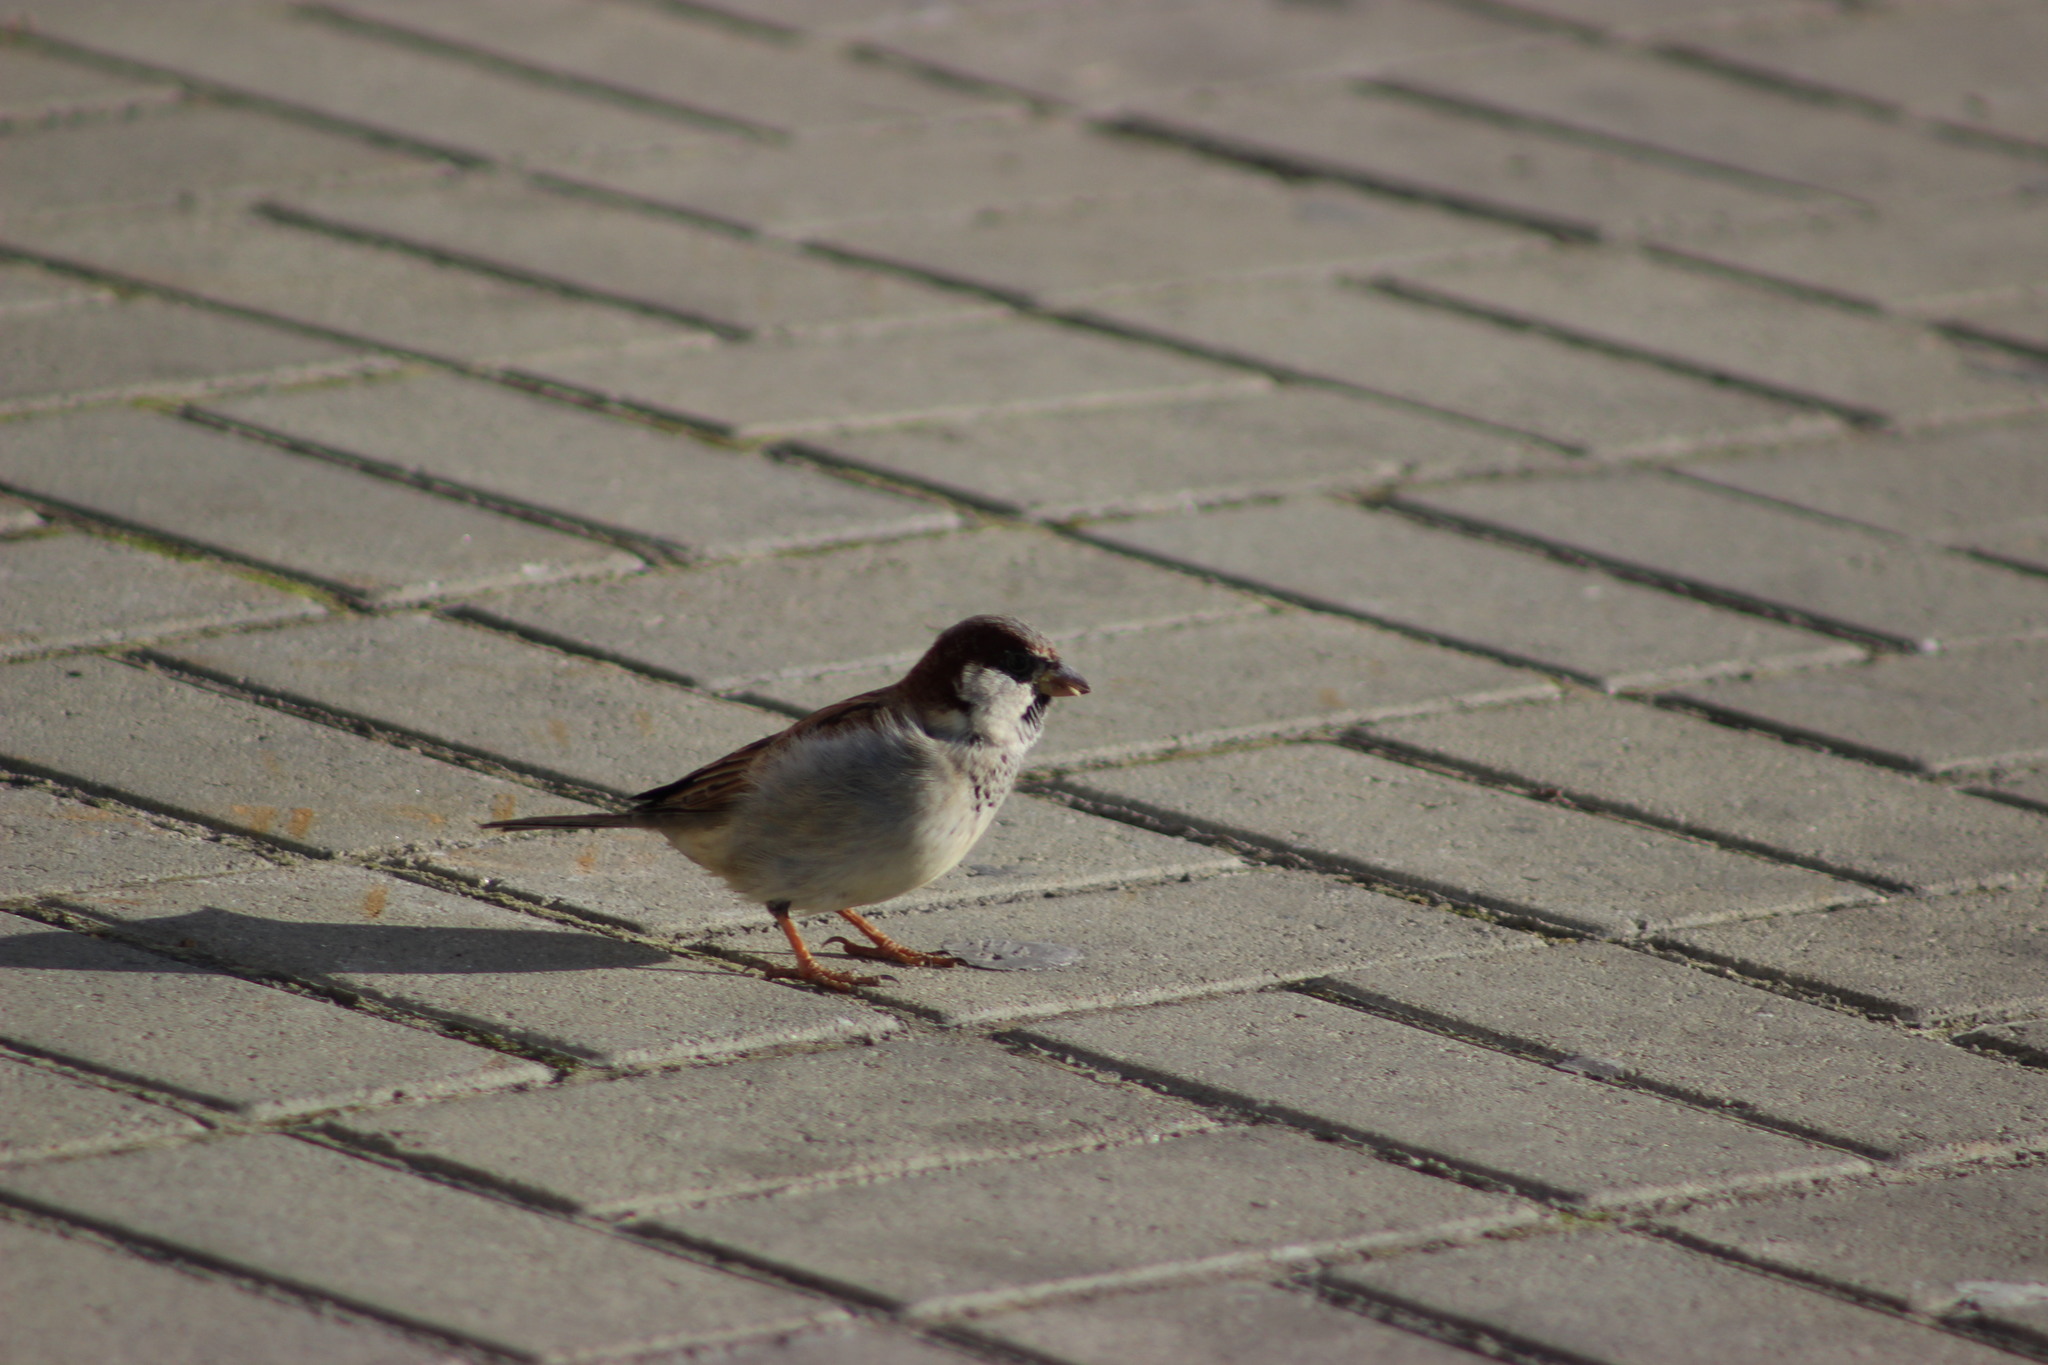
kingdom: Animalia
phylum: Chordata
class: Aves
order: Passeriformes
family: Passeridae
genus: Passer
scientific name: Passer domesticus
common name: House sparrow
